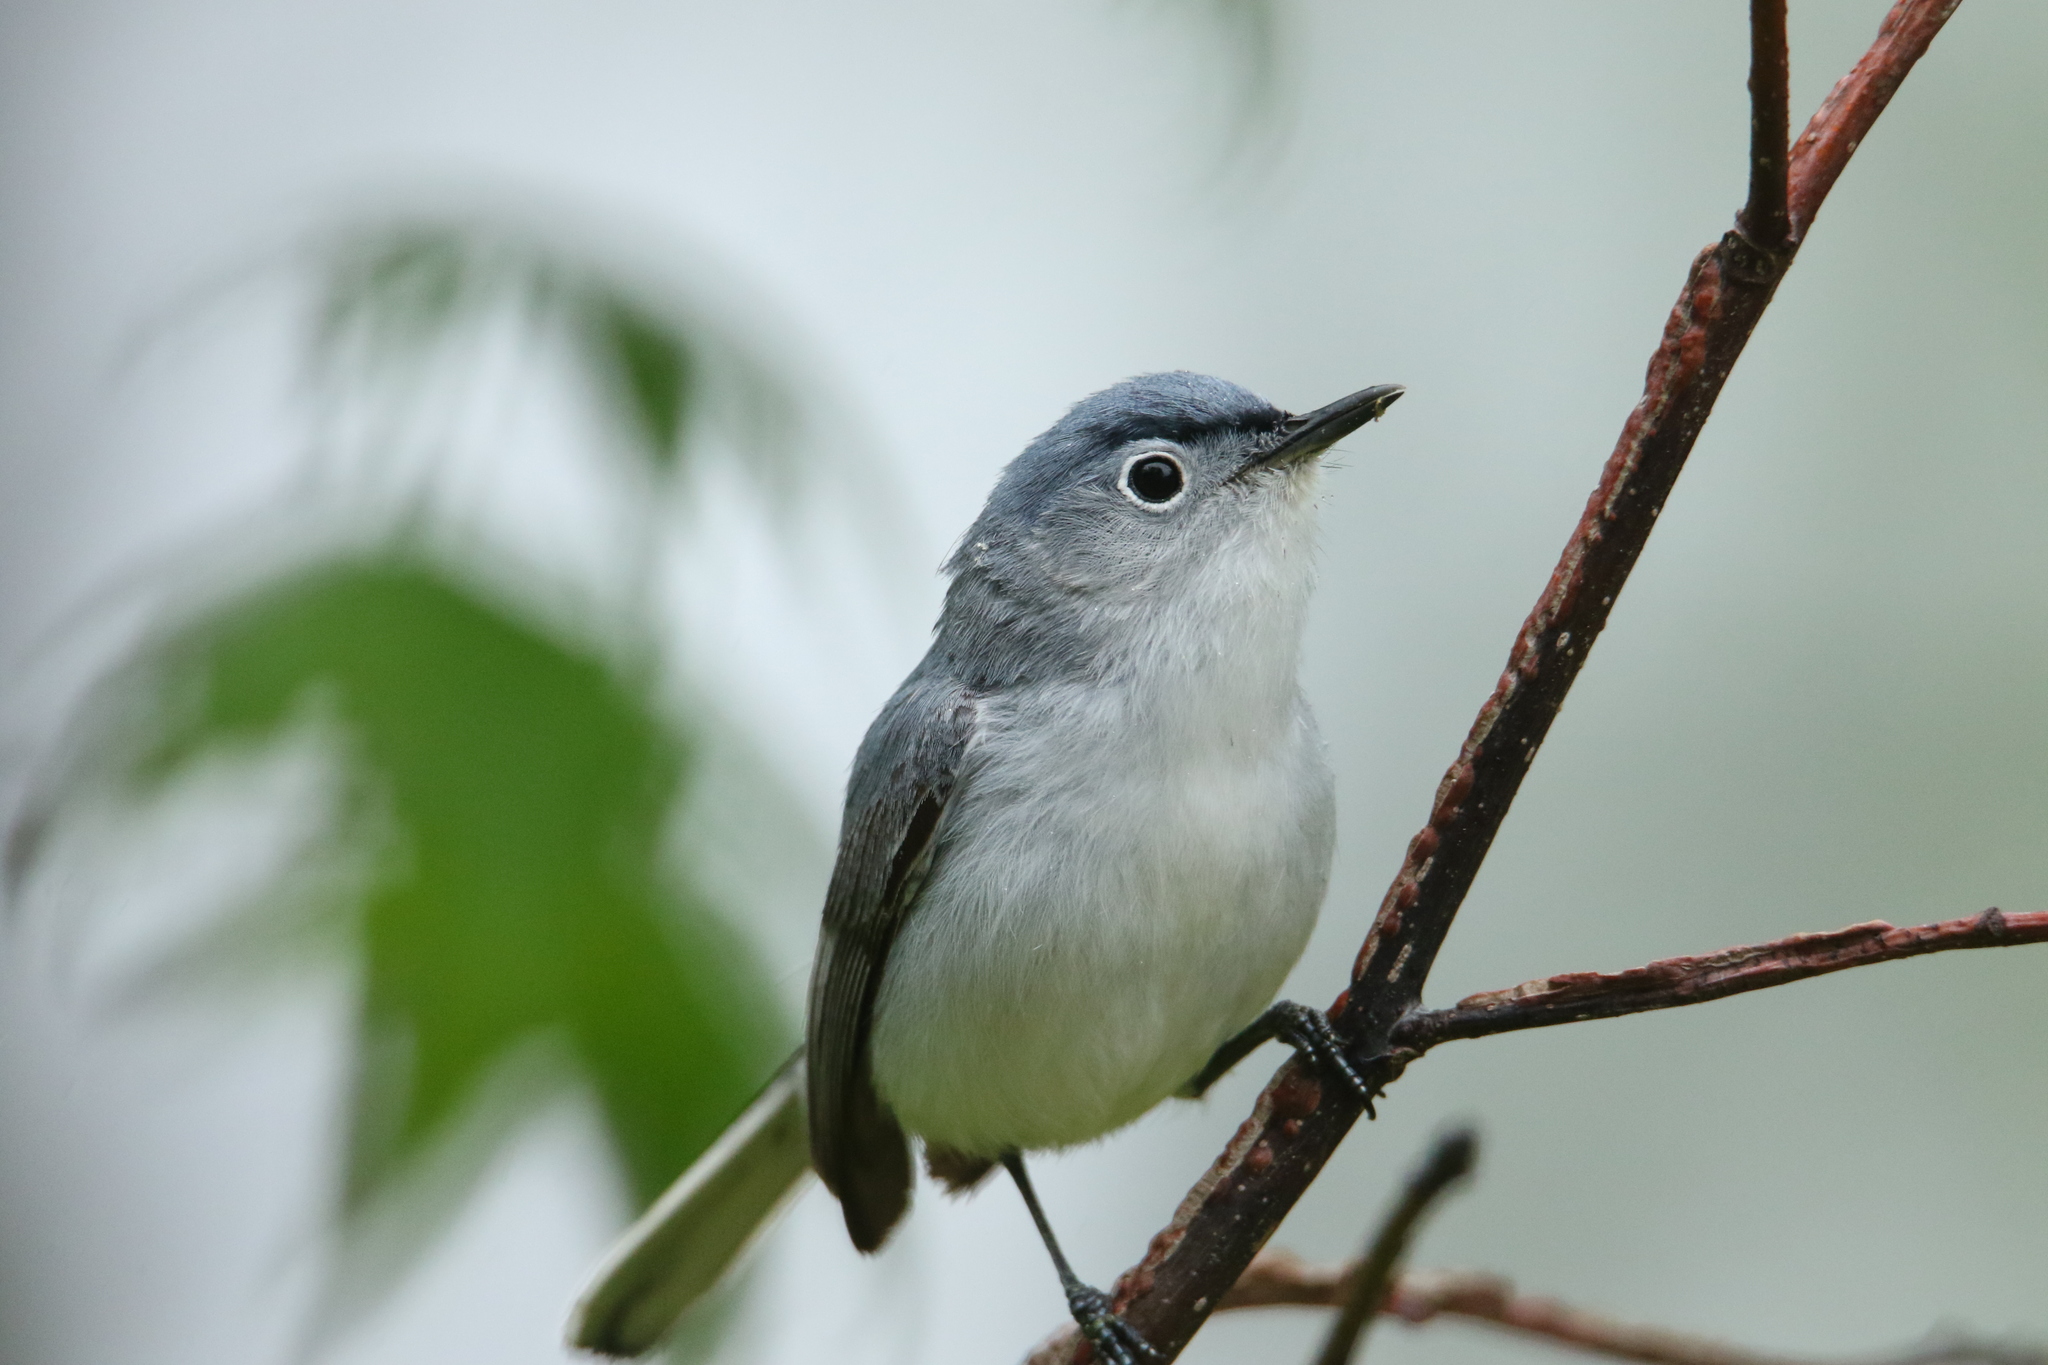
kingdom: Animalia
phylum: Chordata
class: Aves
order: Passeriformes
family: Polioptilidae
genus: Polioptila
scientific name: Polioptila caerulea
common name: Blue-gray gnatcatcher
